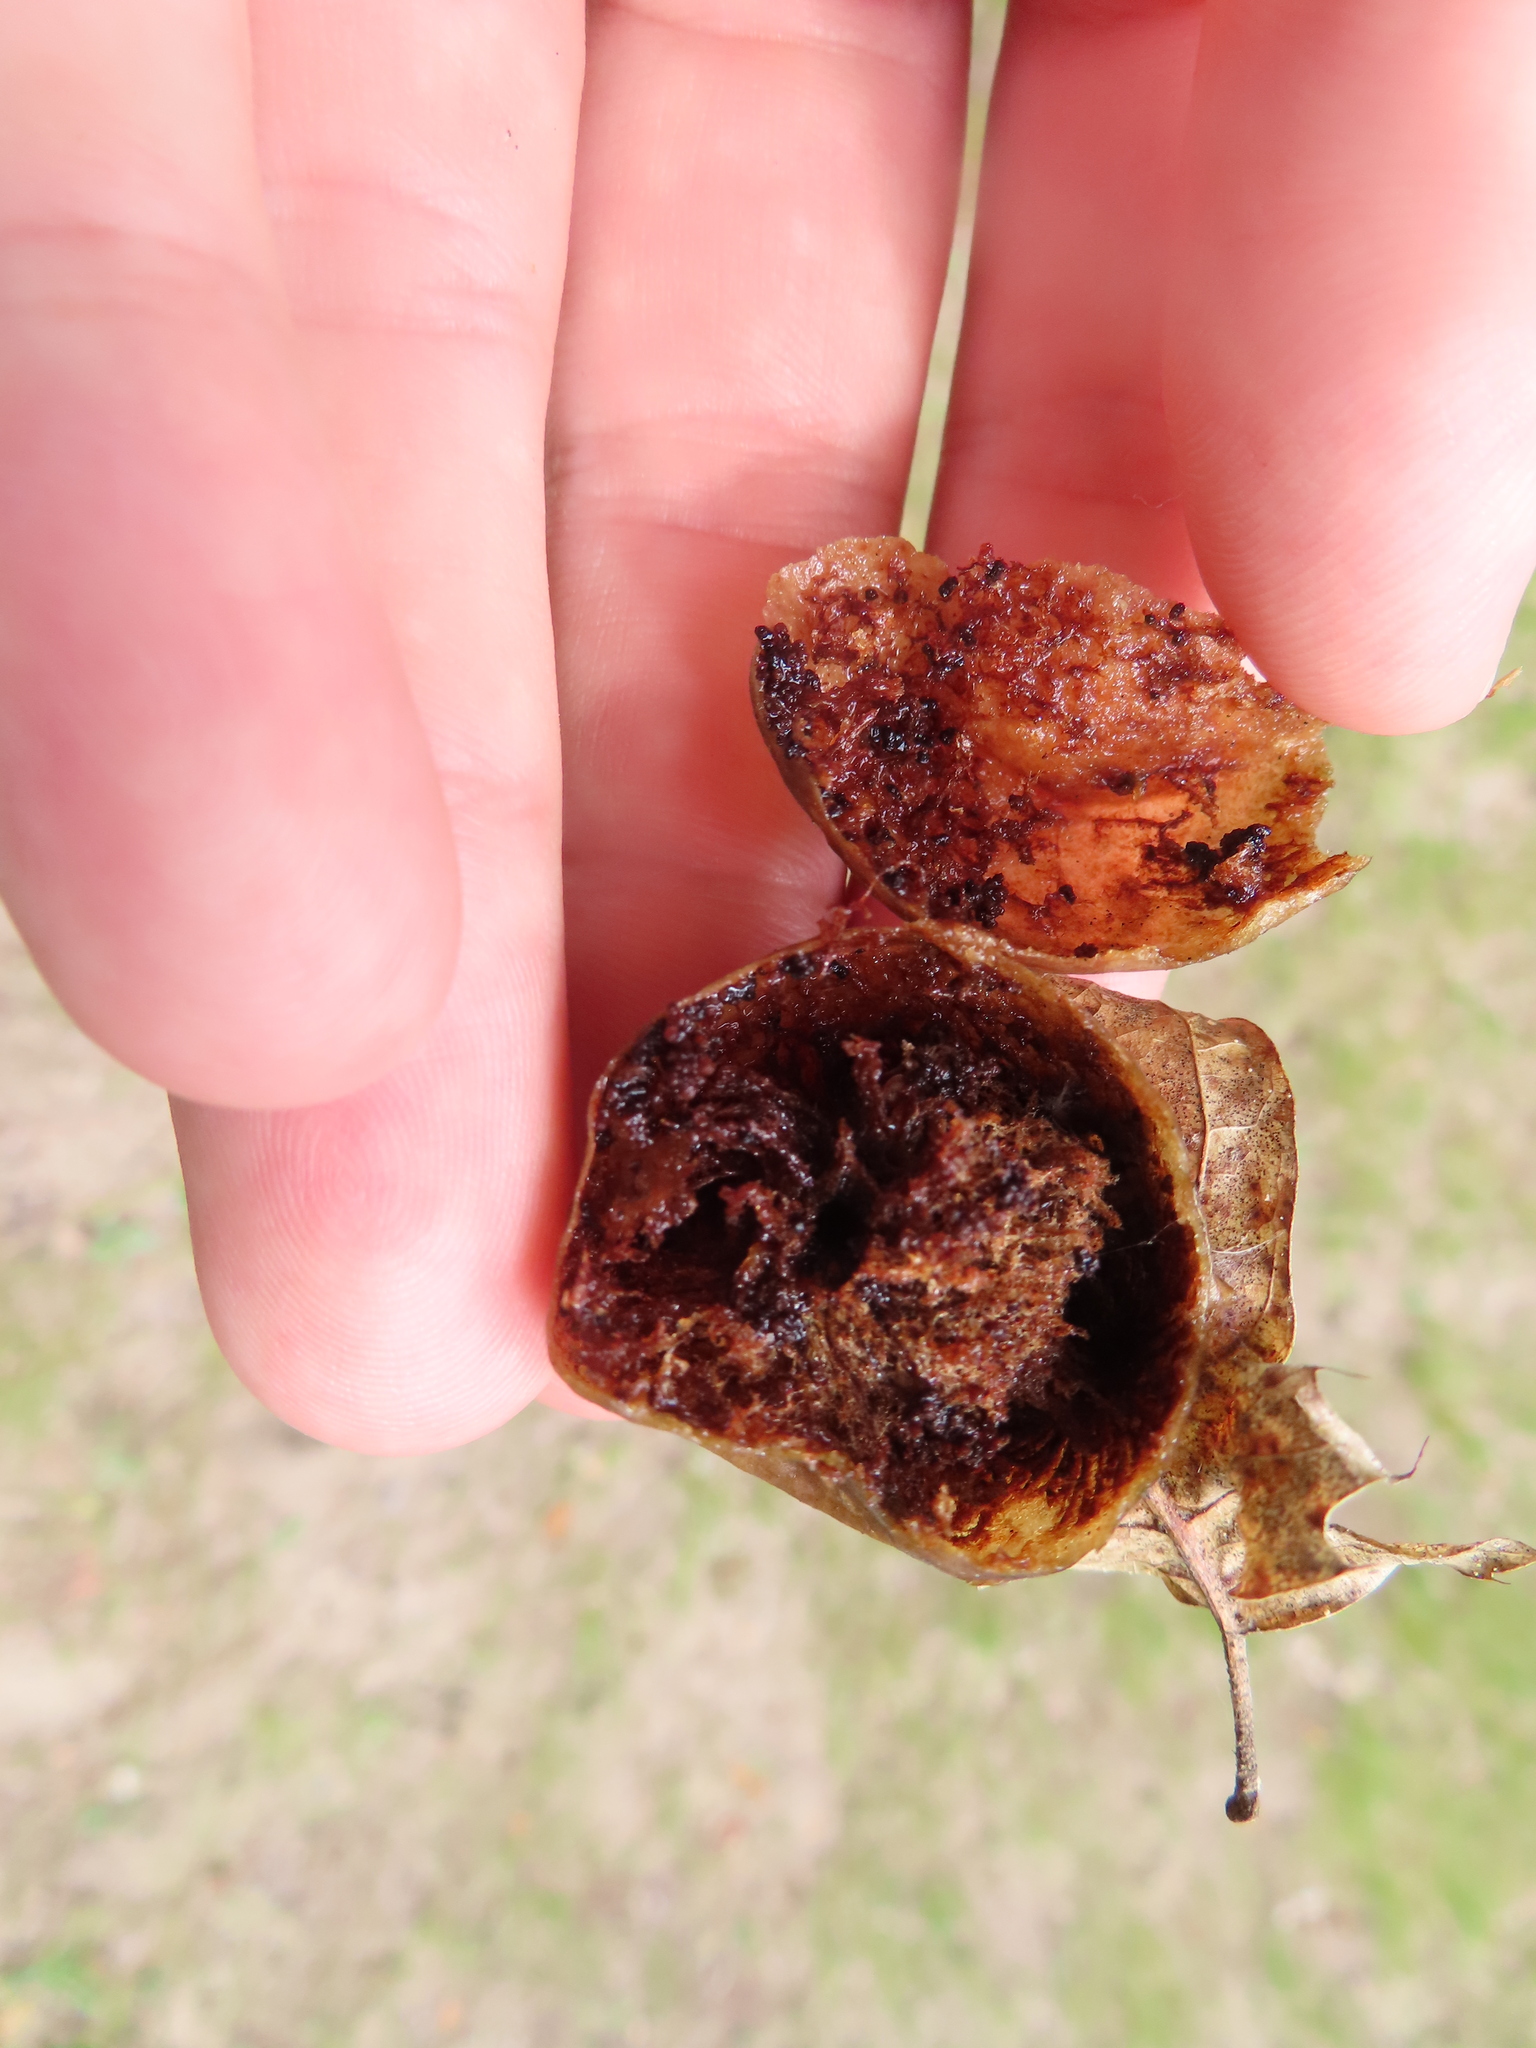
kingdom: Animalia
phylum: Arthropoda
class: Insecta
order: Hymenoptera
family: Cynipidae
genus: Amphibolips
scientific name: Amphibolips
